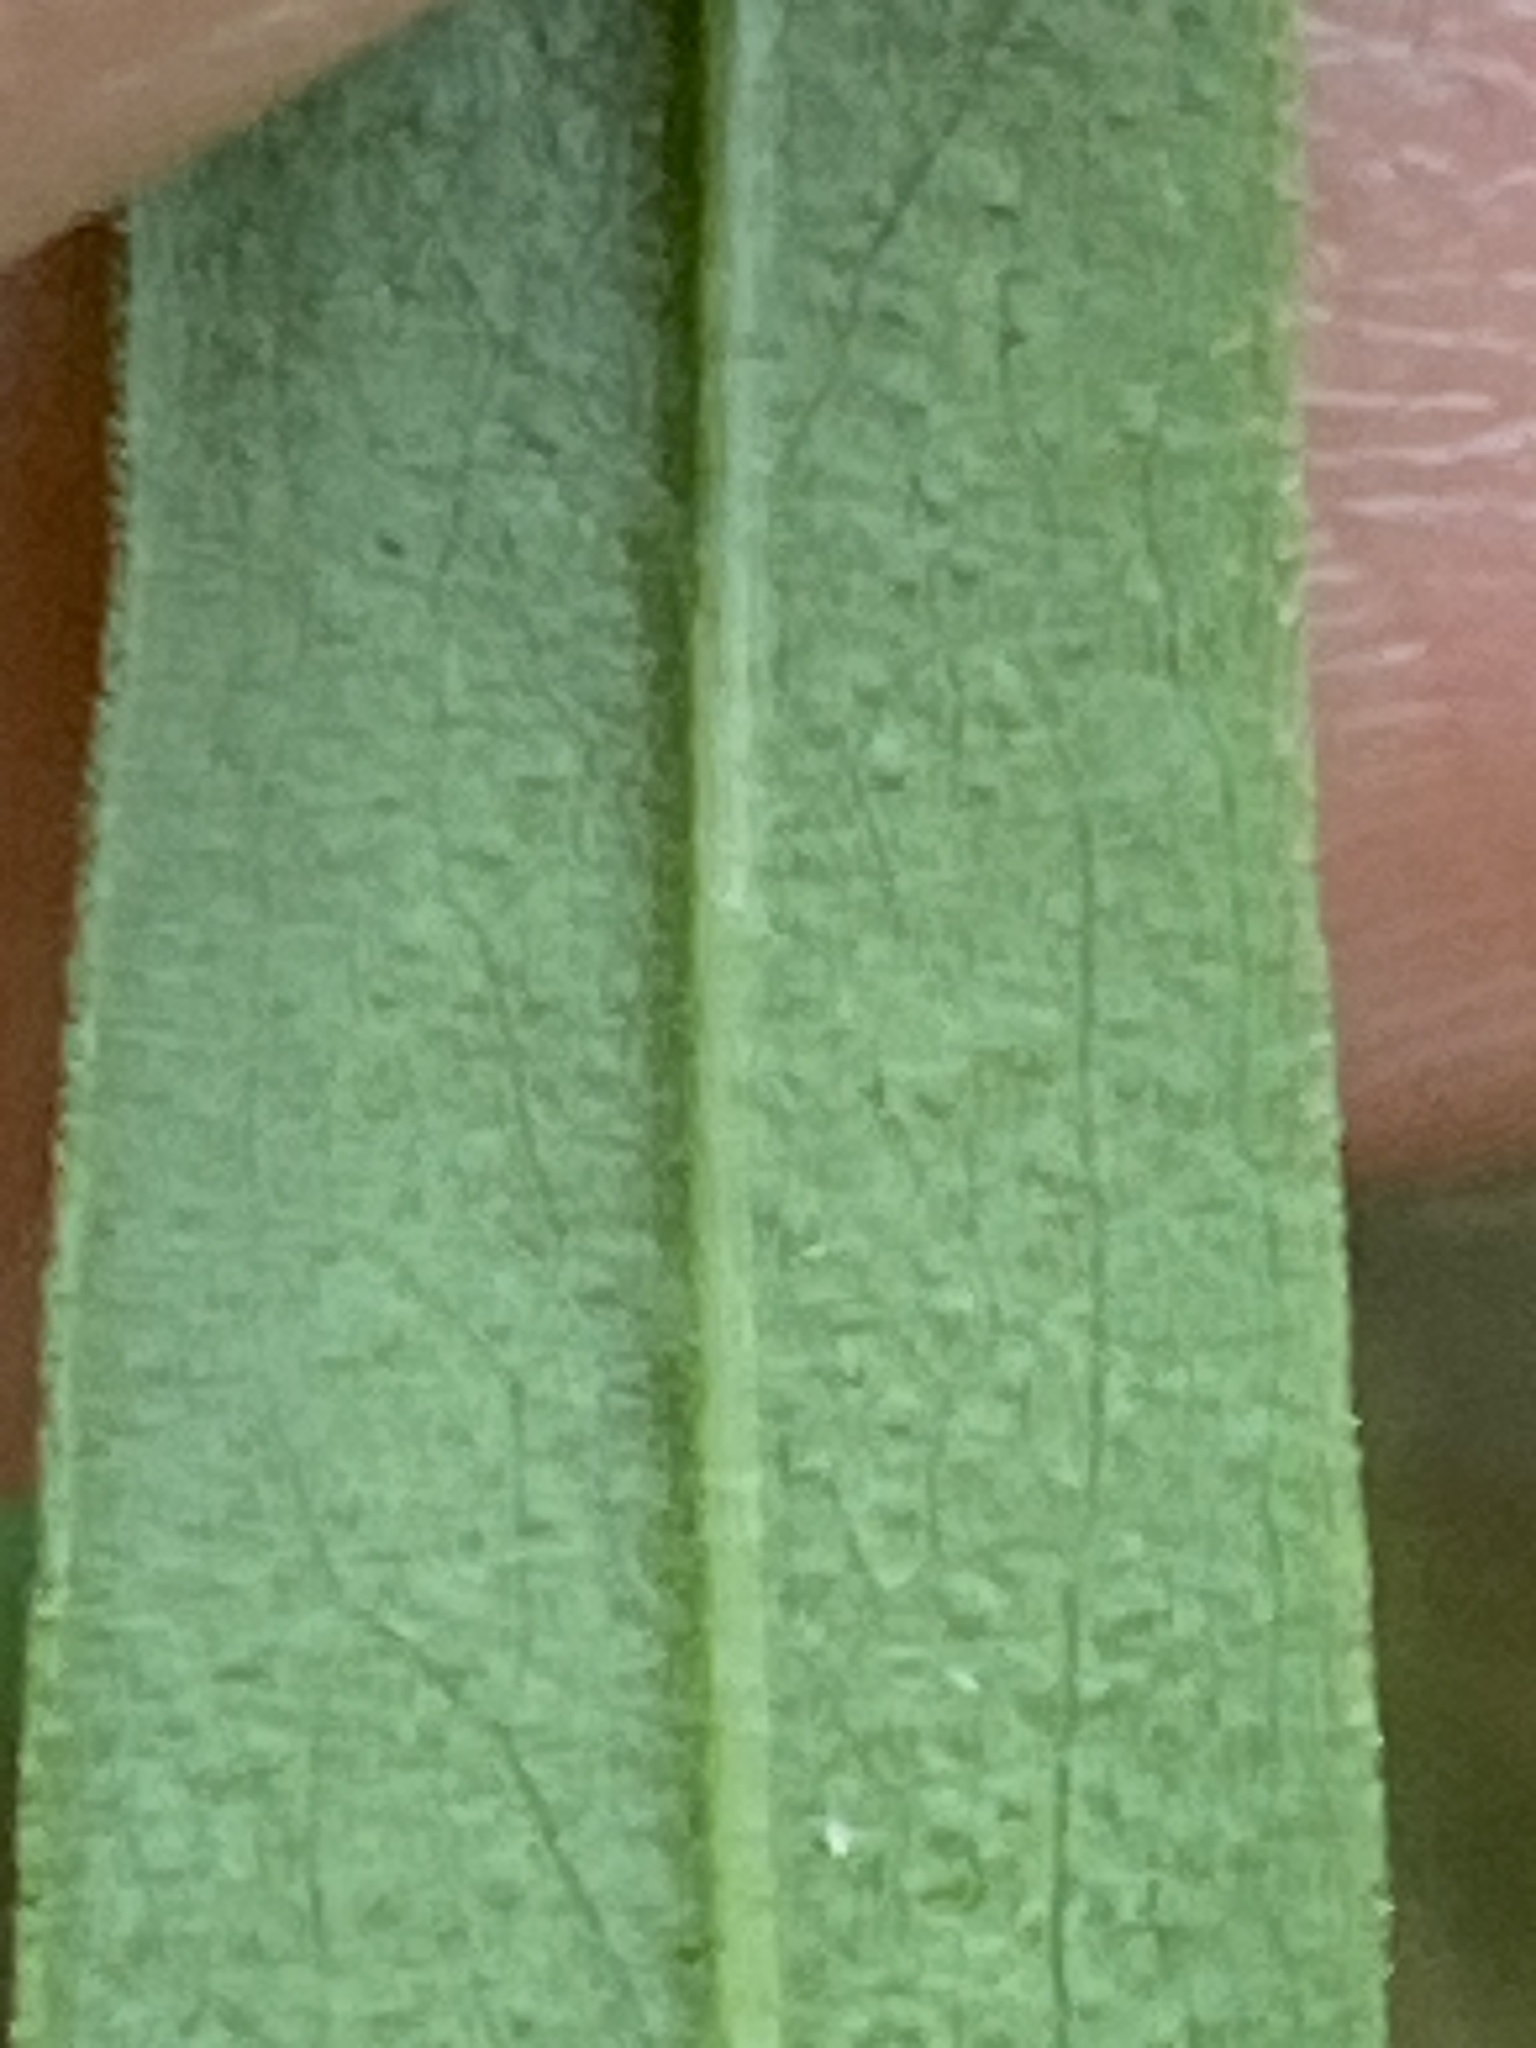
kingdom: Plantae
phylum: Tracheophyta
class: Magnoliopsida
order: Asterales
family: Asteraceae
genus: Solidago
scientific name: Solidago odora
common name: Anise-scented goldenrod
